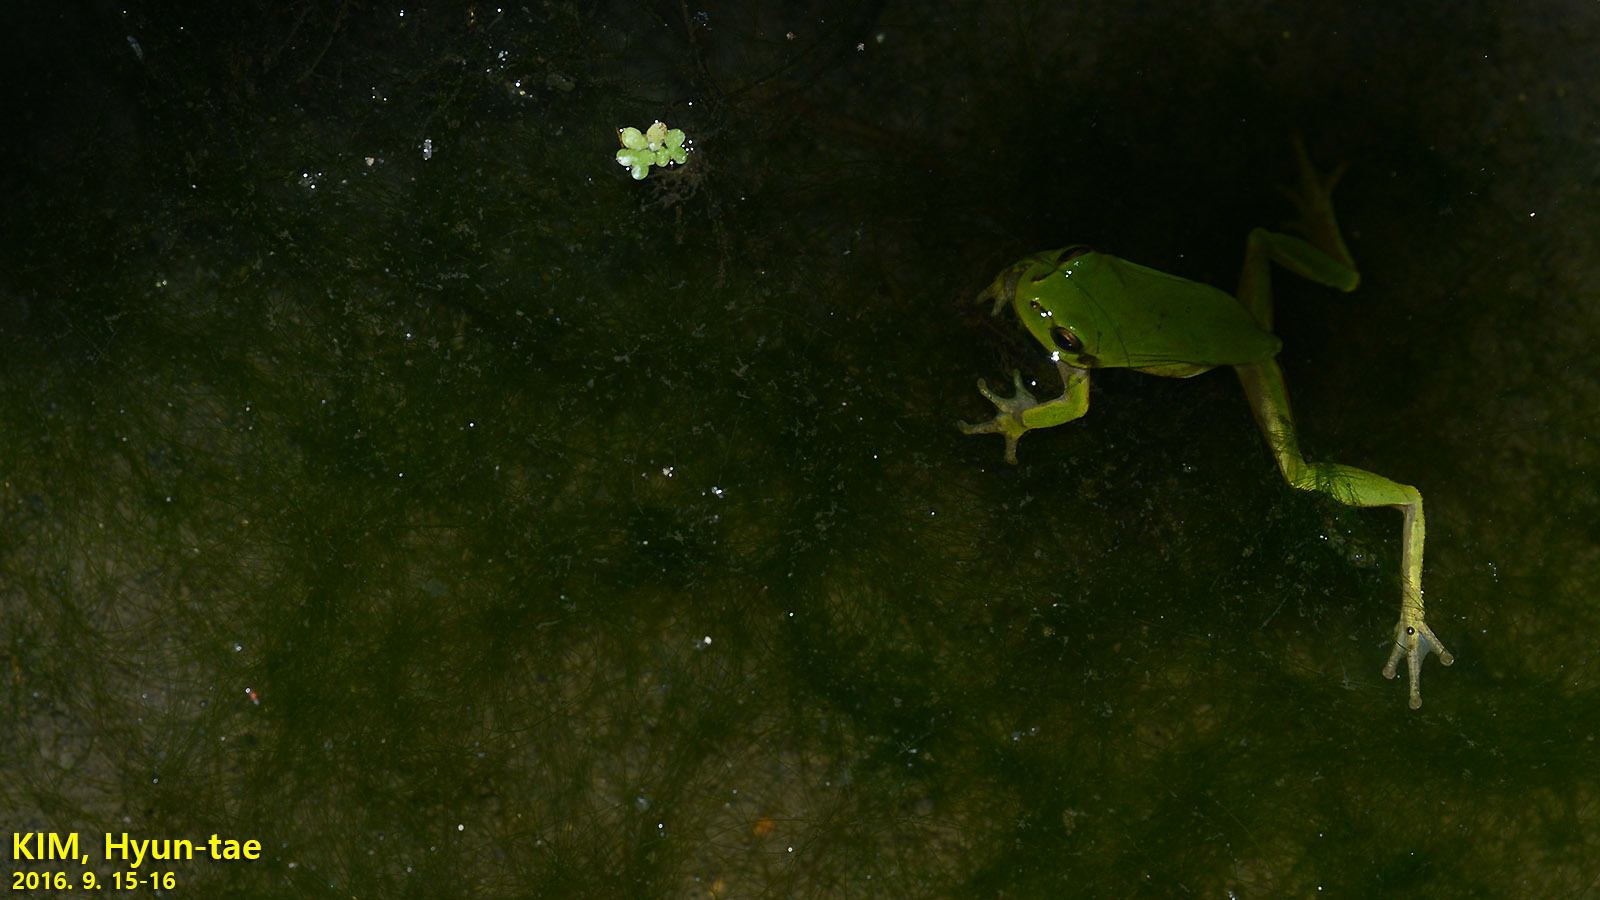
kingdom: Animalia
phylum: Chordata
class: Amphibia
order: Anura
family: Hylidae
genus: Dryophytes
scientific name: Dryophytes immaculatus
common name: North china treefrog
